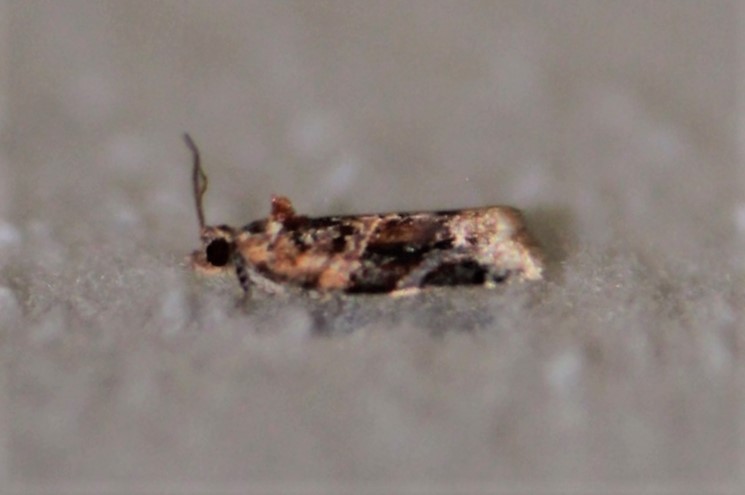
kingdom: Animalia
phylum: Arthropoda
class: Insecta
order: Lepidoptera
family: Tortricidae
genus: Argyrotaenia
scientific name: Argyrotaenia velutinana
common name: Red-banded leafroller moth
